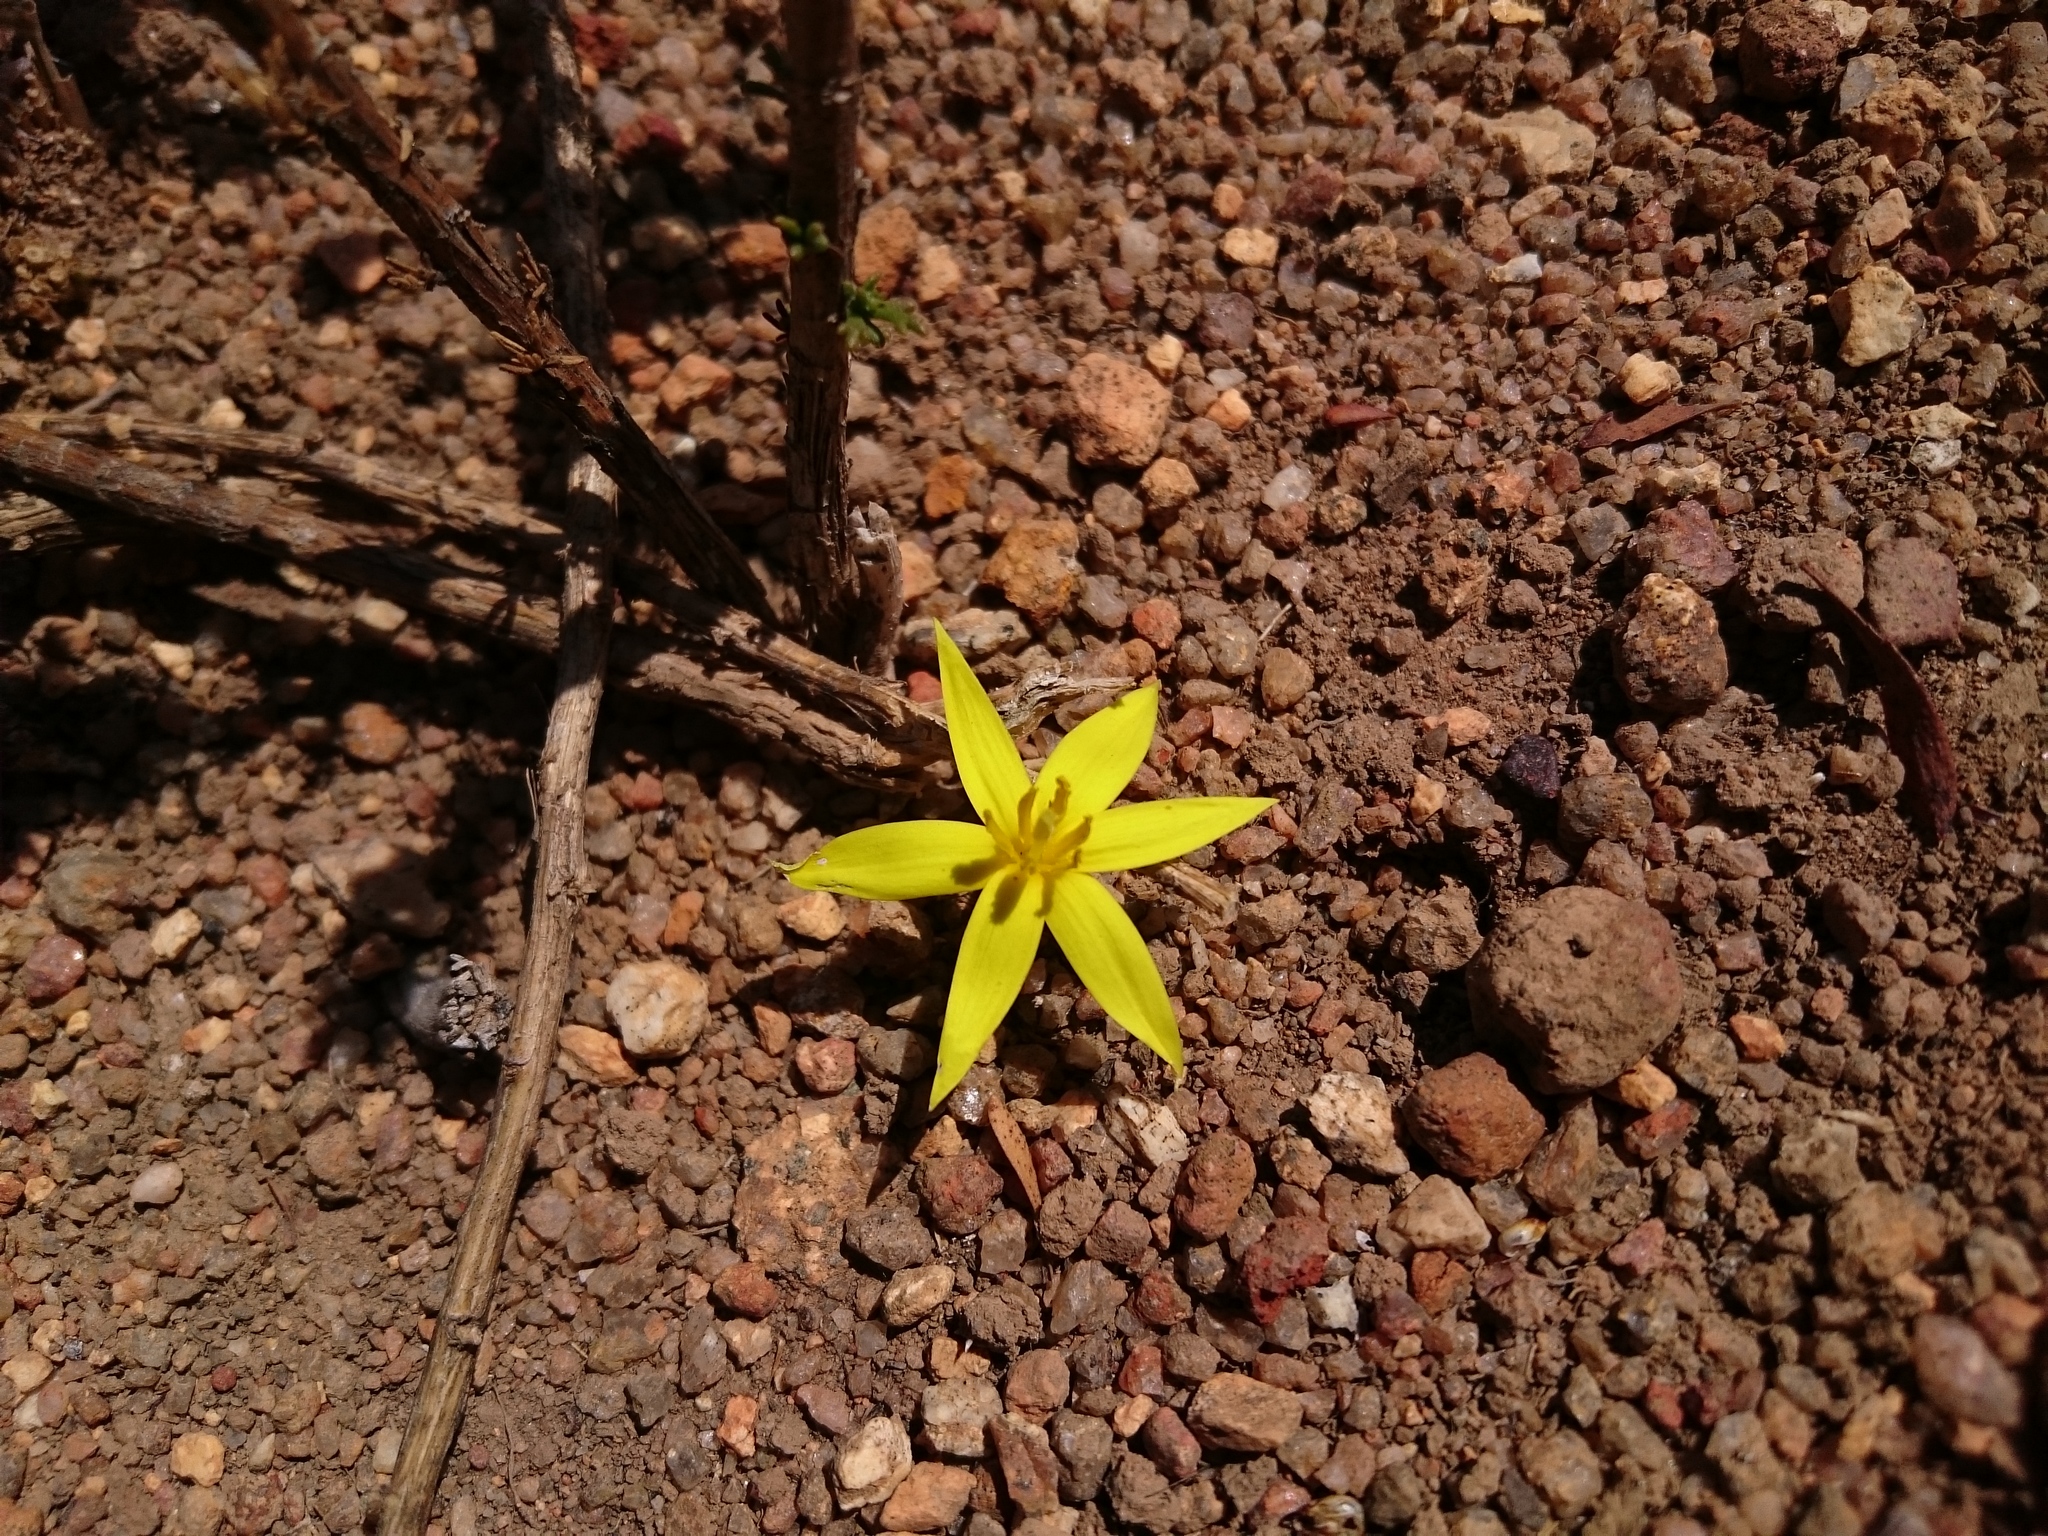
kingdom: Plantae
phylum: Tracheophyta
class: Liliopsida
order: Asparagales
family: Hypoxidaceae
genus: Empodium
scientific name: Empodium plicatum
